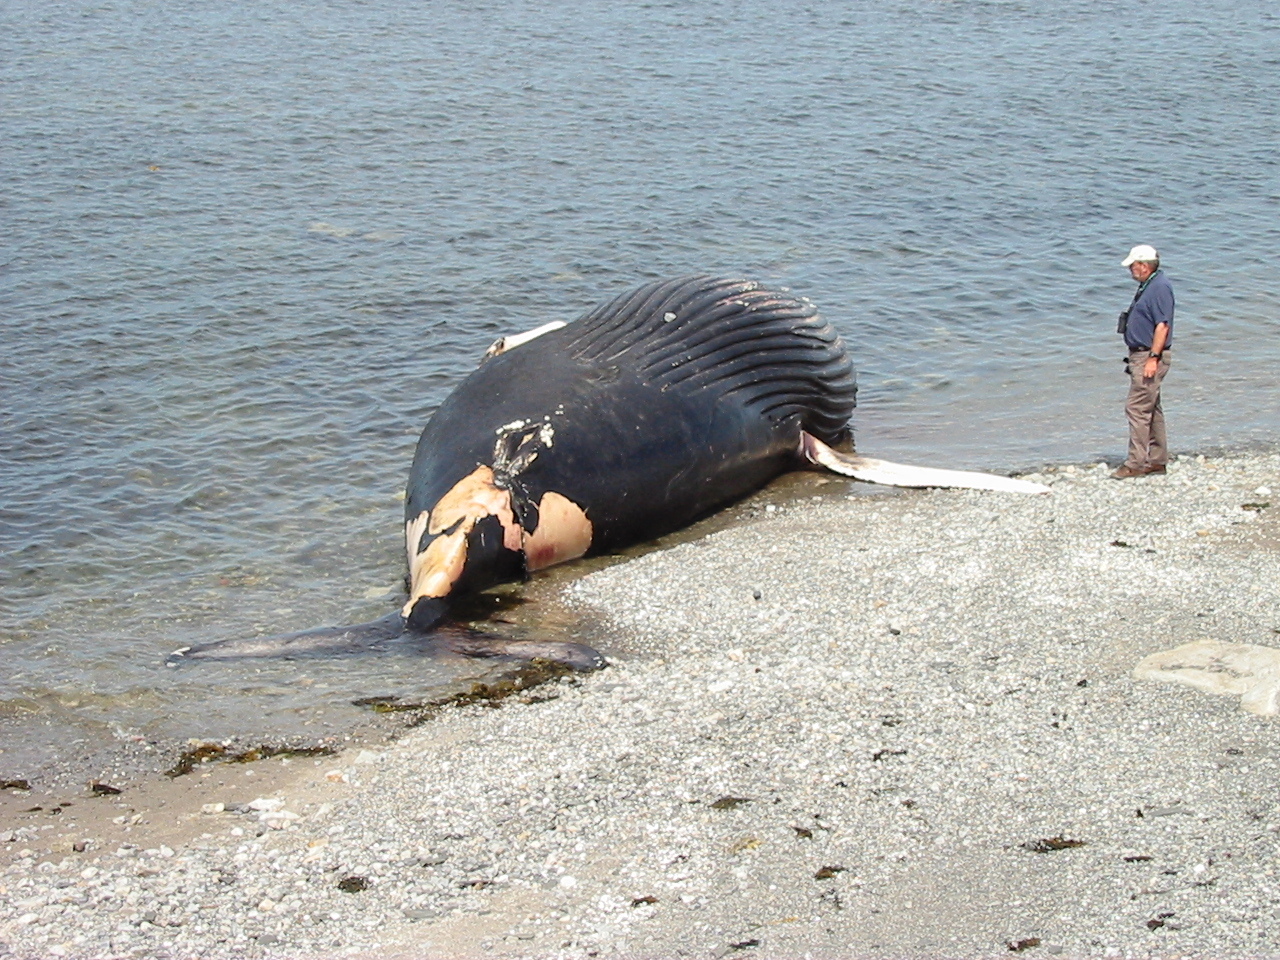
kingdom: Animalia
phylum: Chordata
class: Mammalia
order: Cetacea
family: Balaenopteridae
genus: Megaptera
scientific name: Megaptera novaeangliae
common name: Humpback whale
